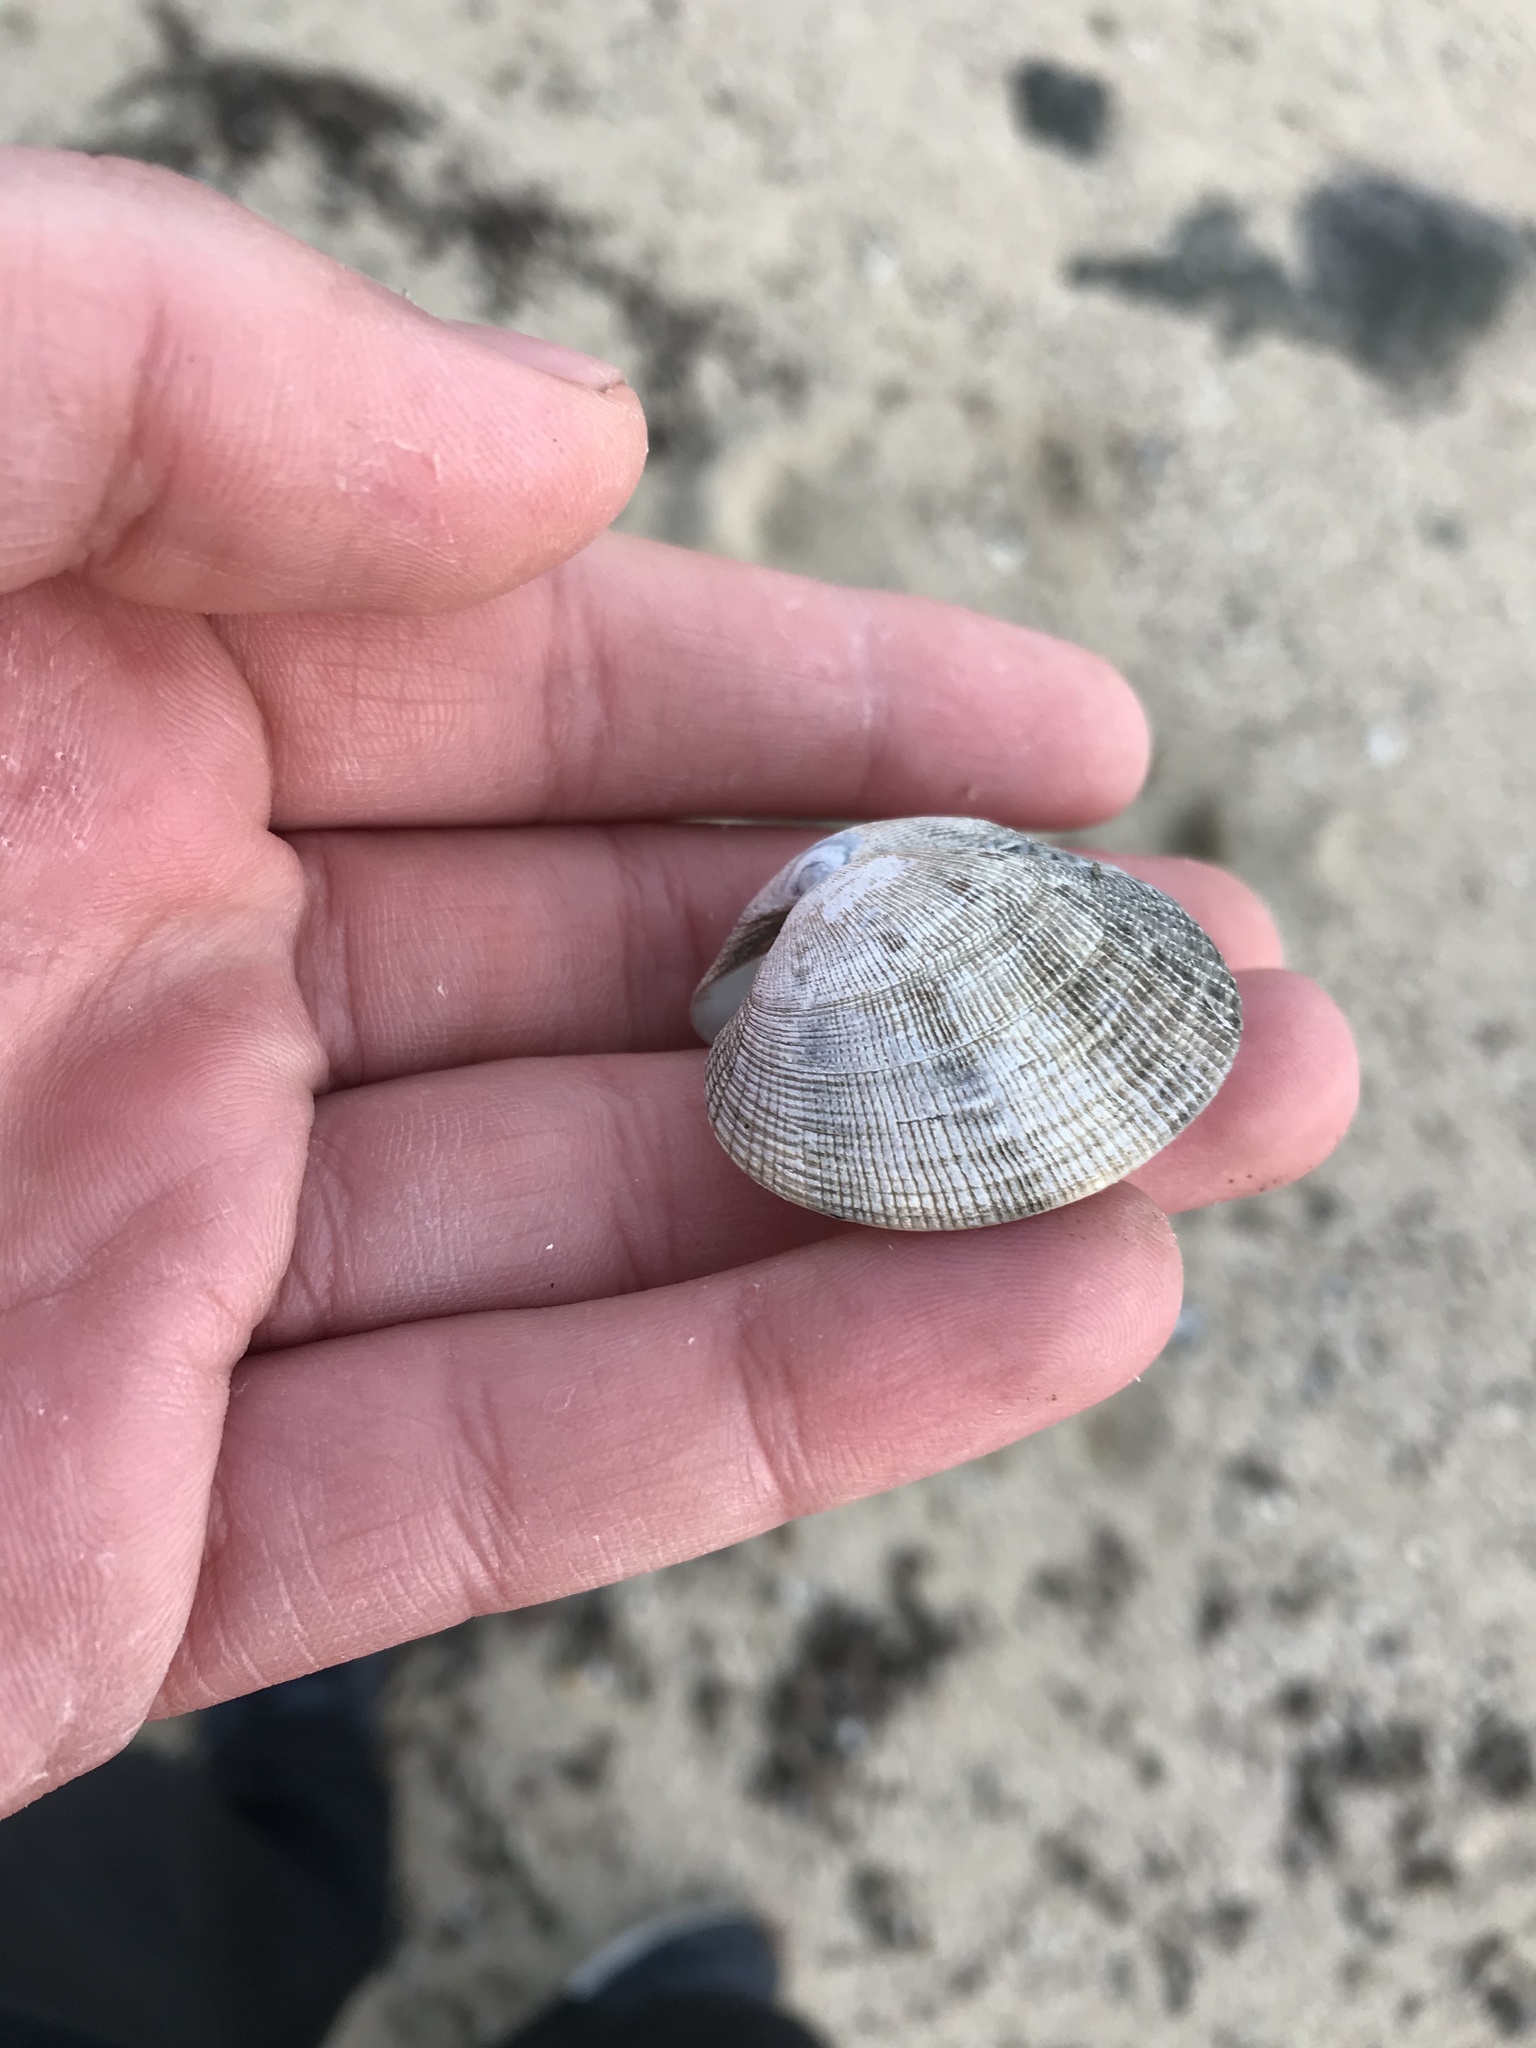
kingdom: Animalia
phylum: Mollusca
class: Bivalvia
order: Venerida
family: Veneridae
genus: Ruditapes
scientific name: Ruditapes philippinarum
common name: Manila clam
